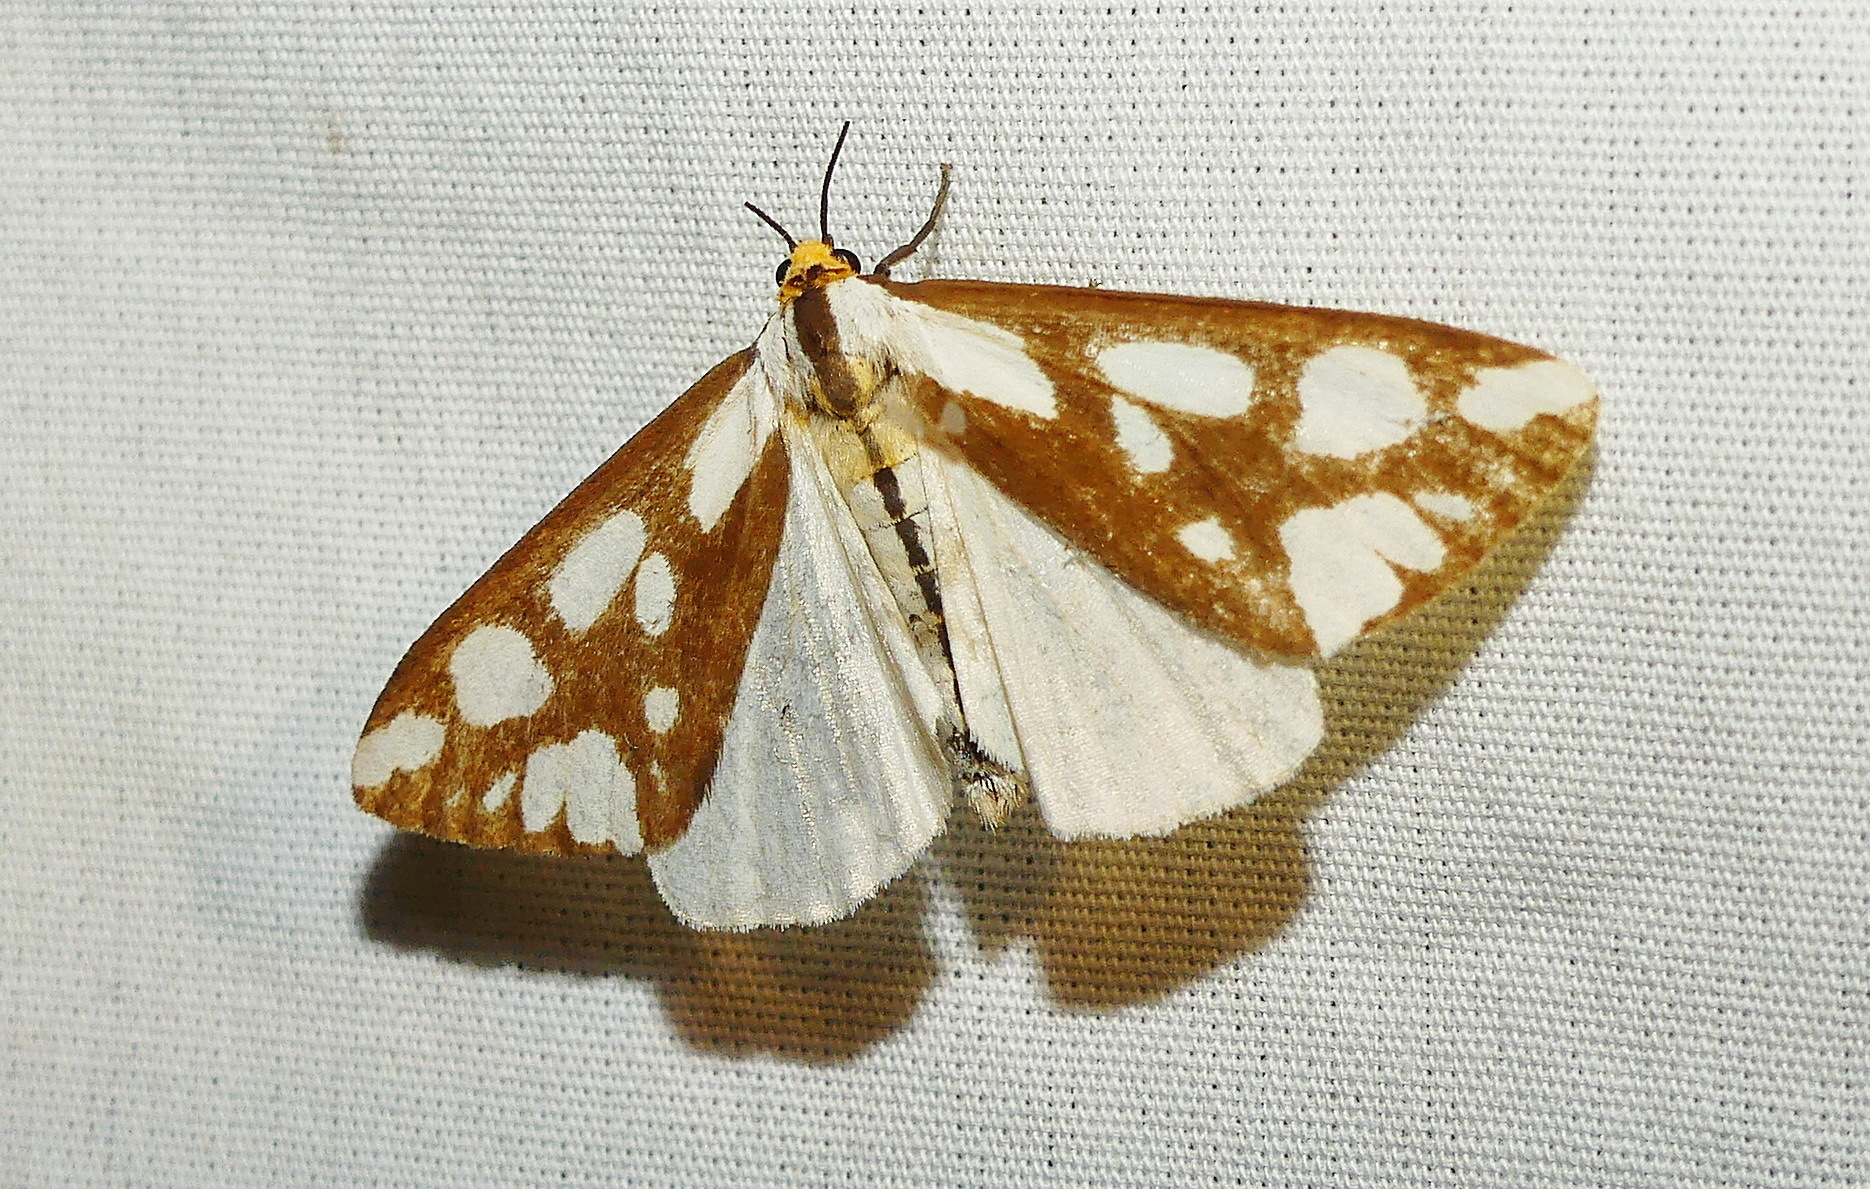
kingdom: Animalia
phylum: Arthropoda
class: Insecta
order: Lepidoptera
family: Erebidae
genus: Haploa
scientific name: Haploa lecontei
